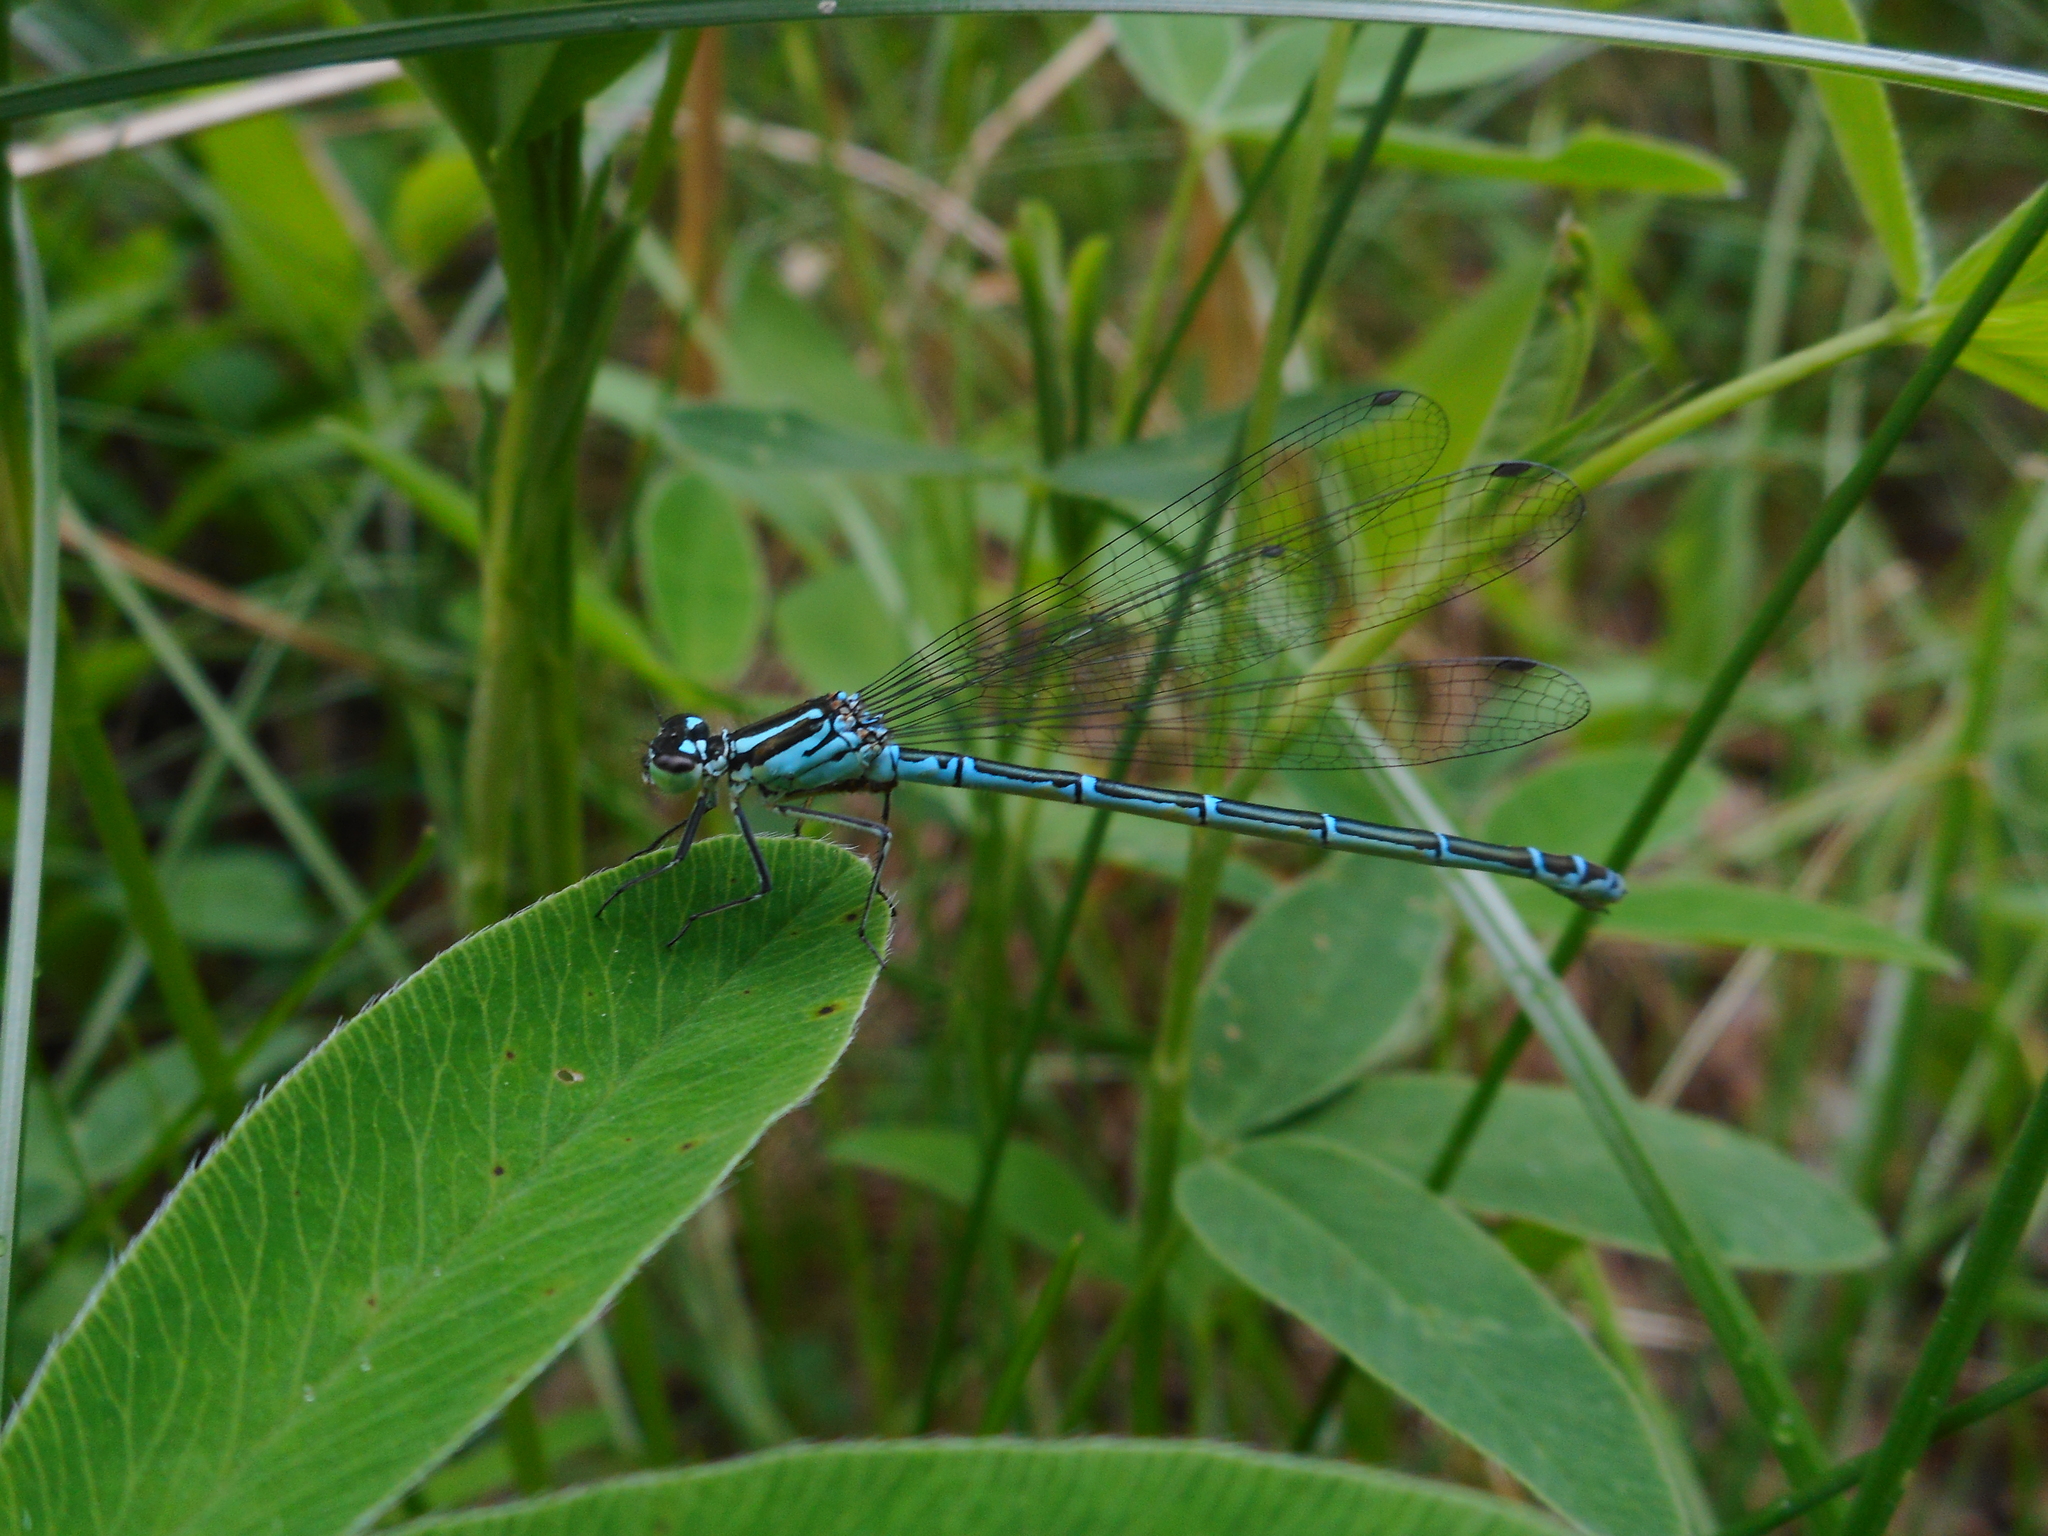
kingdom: Animalia
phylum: Arthropoda
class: Insecta
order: Odonata
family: Coenagrionidae
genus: Coenagrion
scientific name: Coenagrion puella
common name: Azure damselfly
